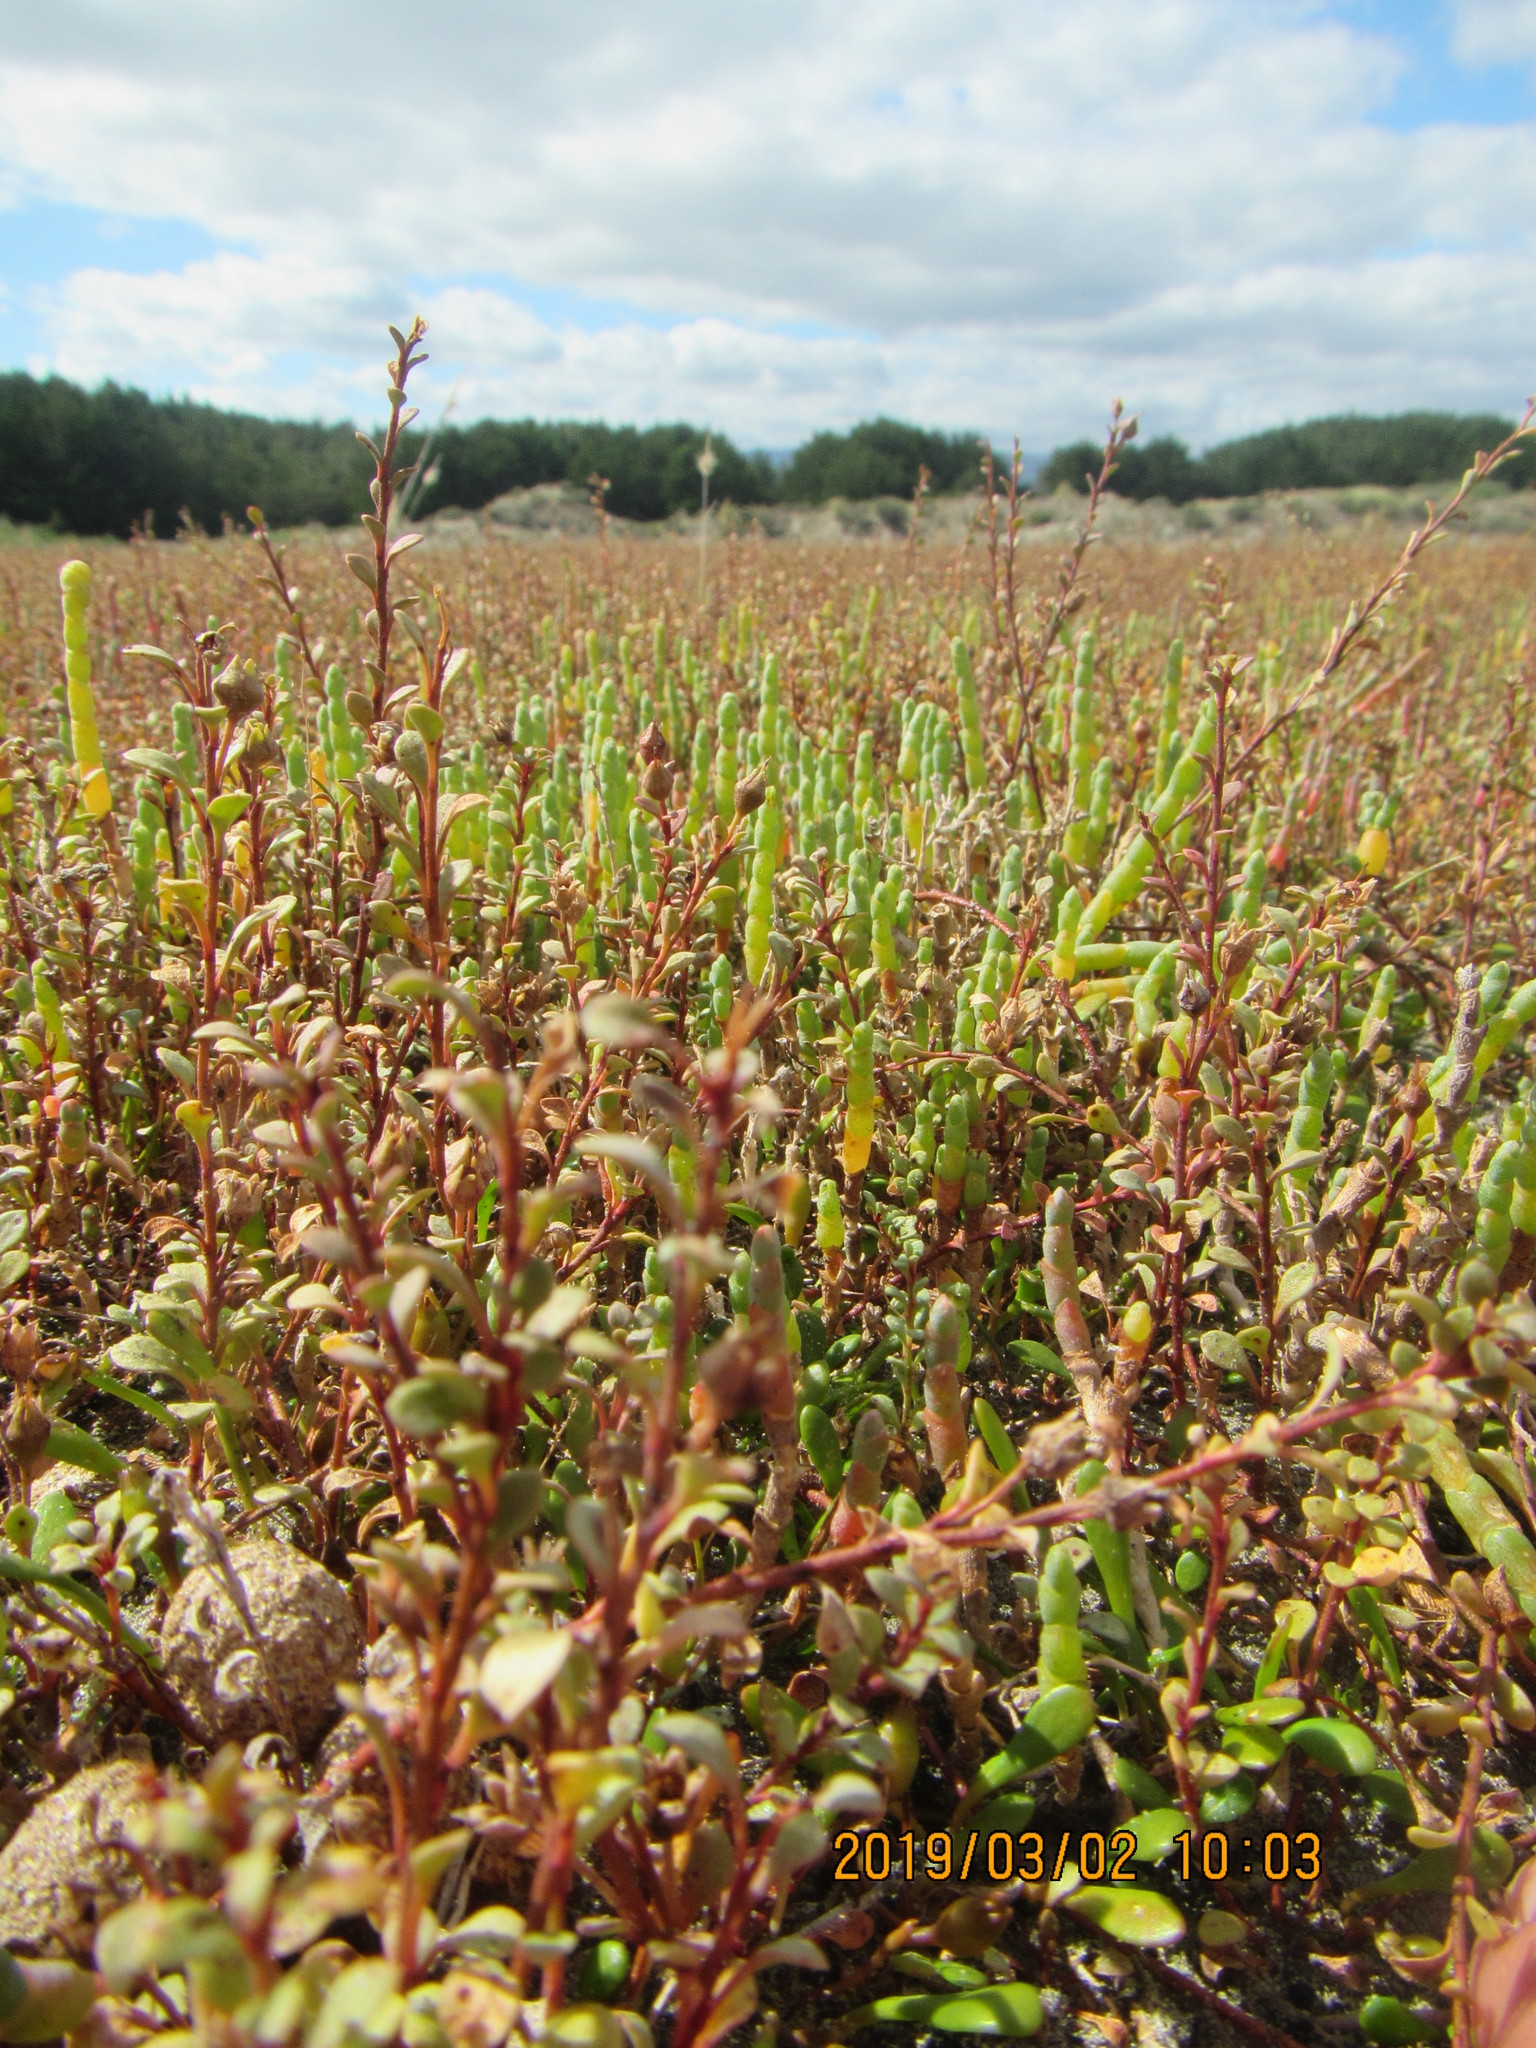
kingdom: Plantae
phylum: Tracheophyta
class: Magnoliopsida
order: Caryophyllales
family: Amaranthaceae
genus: Salicornia
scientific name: Salicornia quinqueflora
